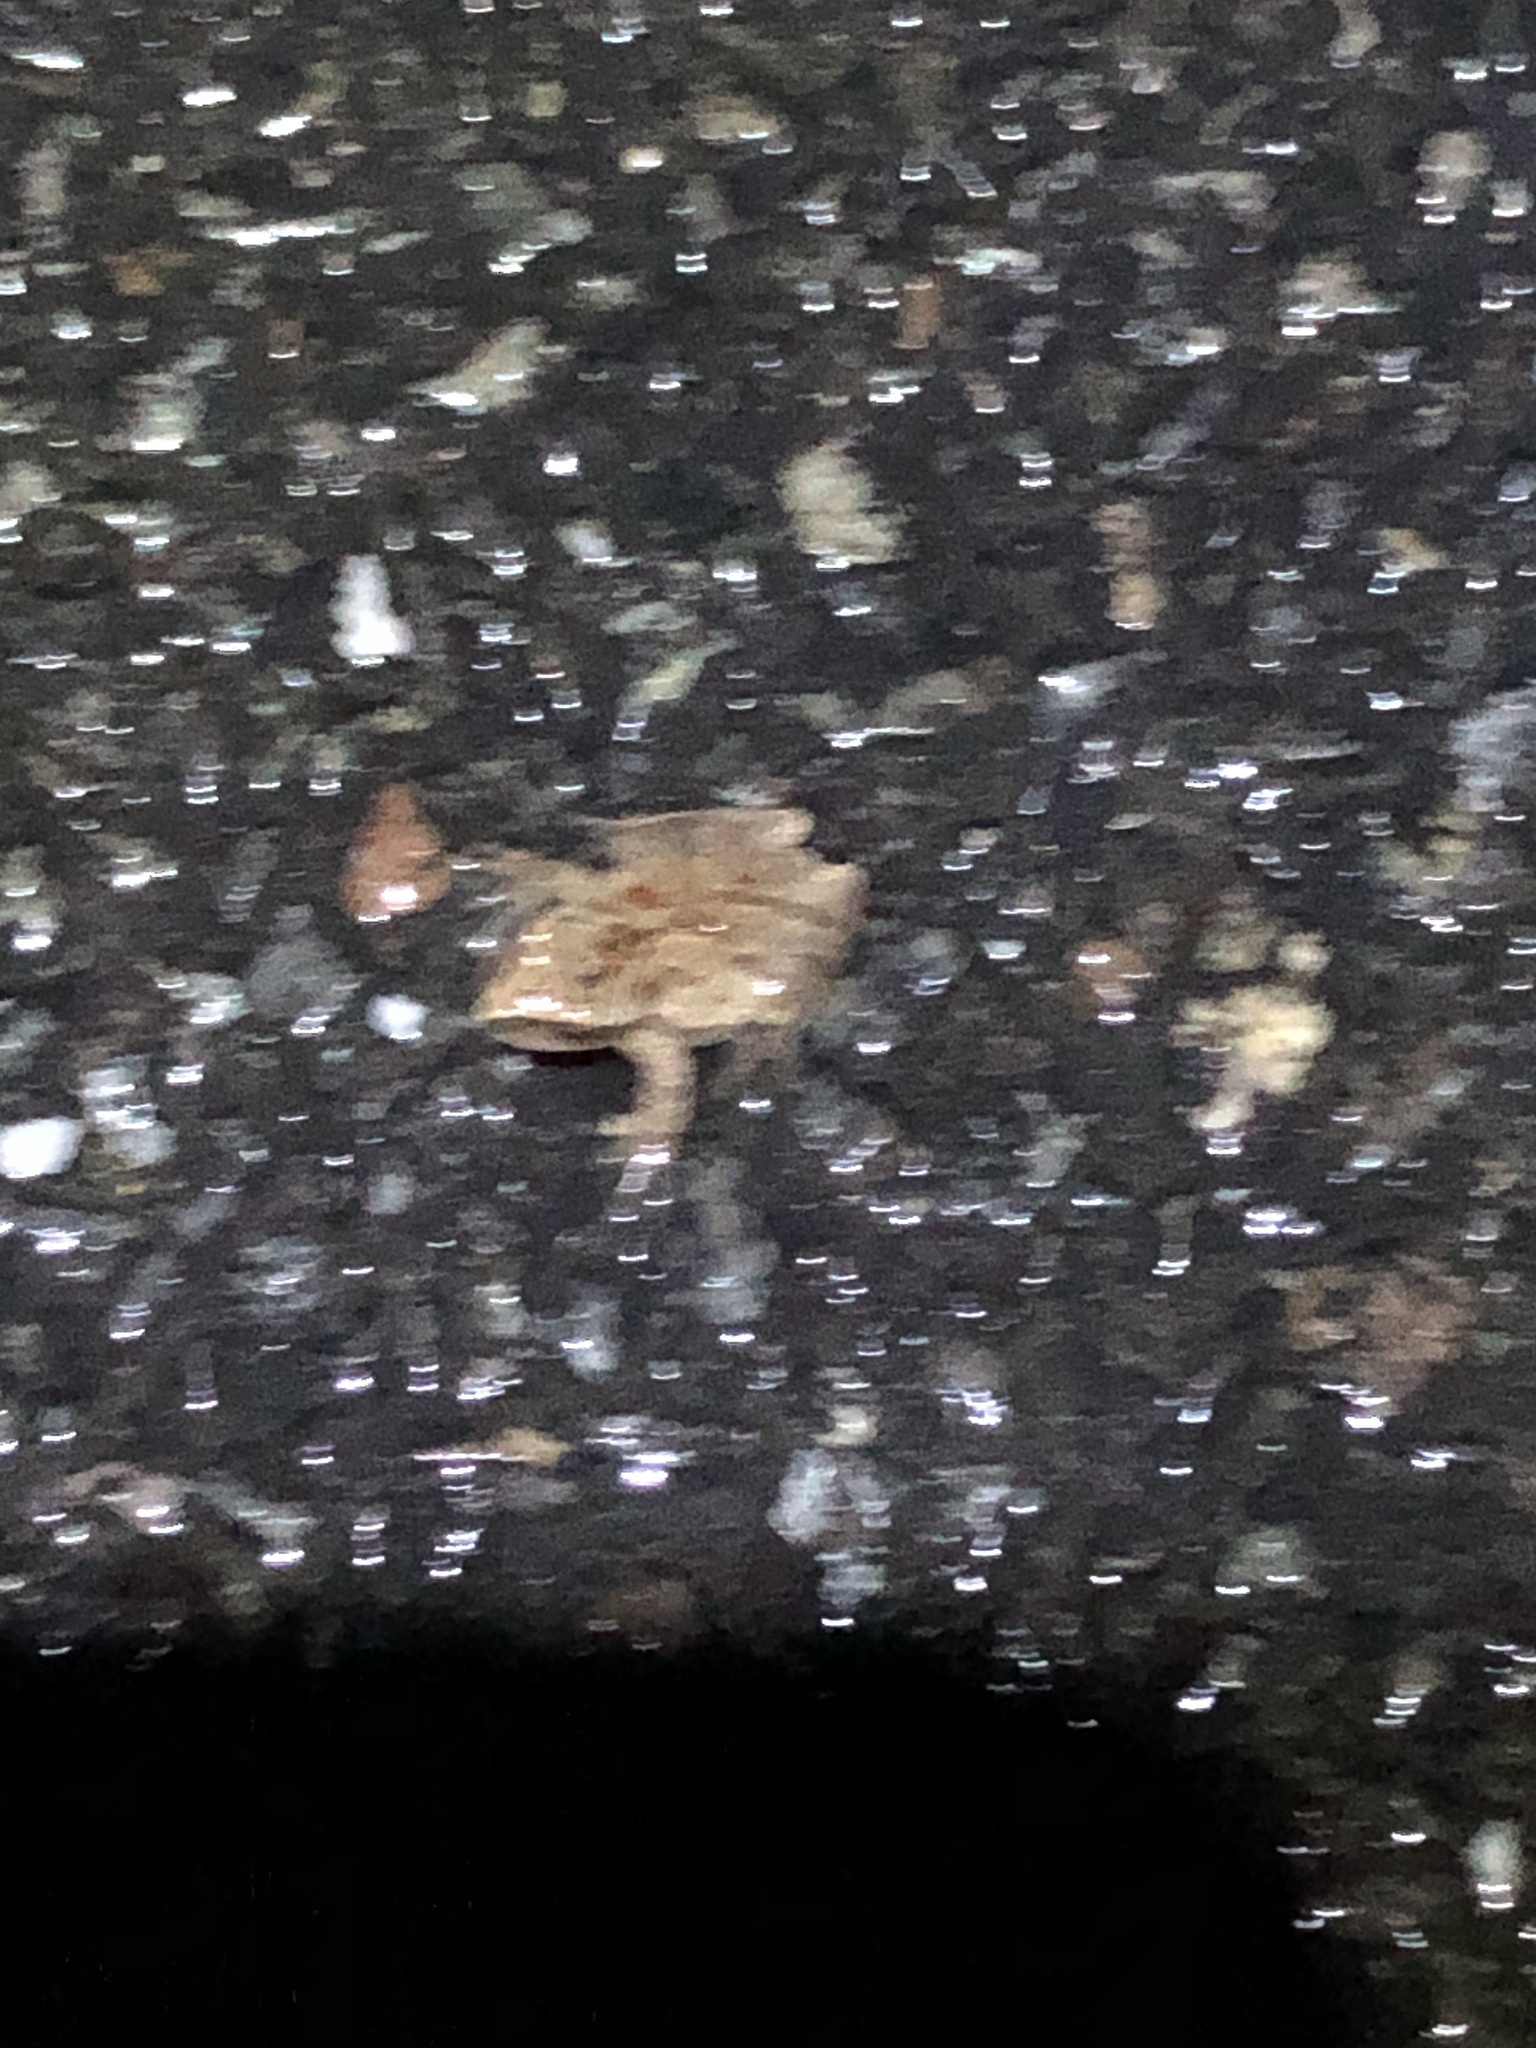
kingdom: Animalia
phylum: Chordata
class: Amphibia
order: Anura
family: Hylidae
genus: Pseudacris
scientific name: Pseudacris crucifer
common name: Spring peeper
